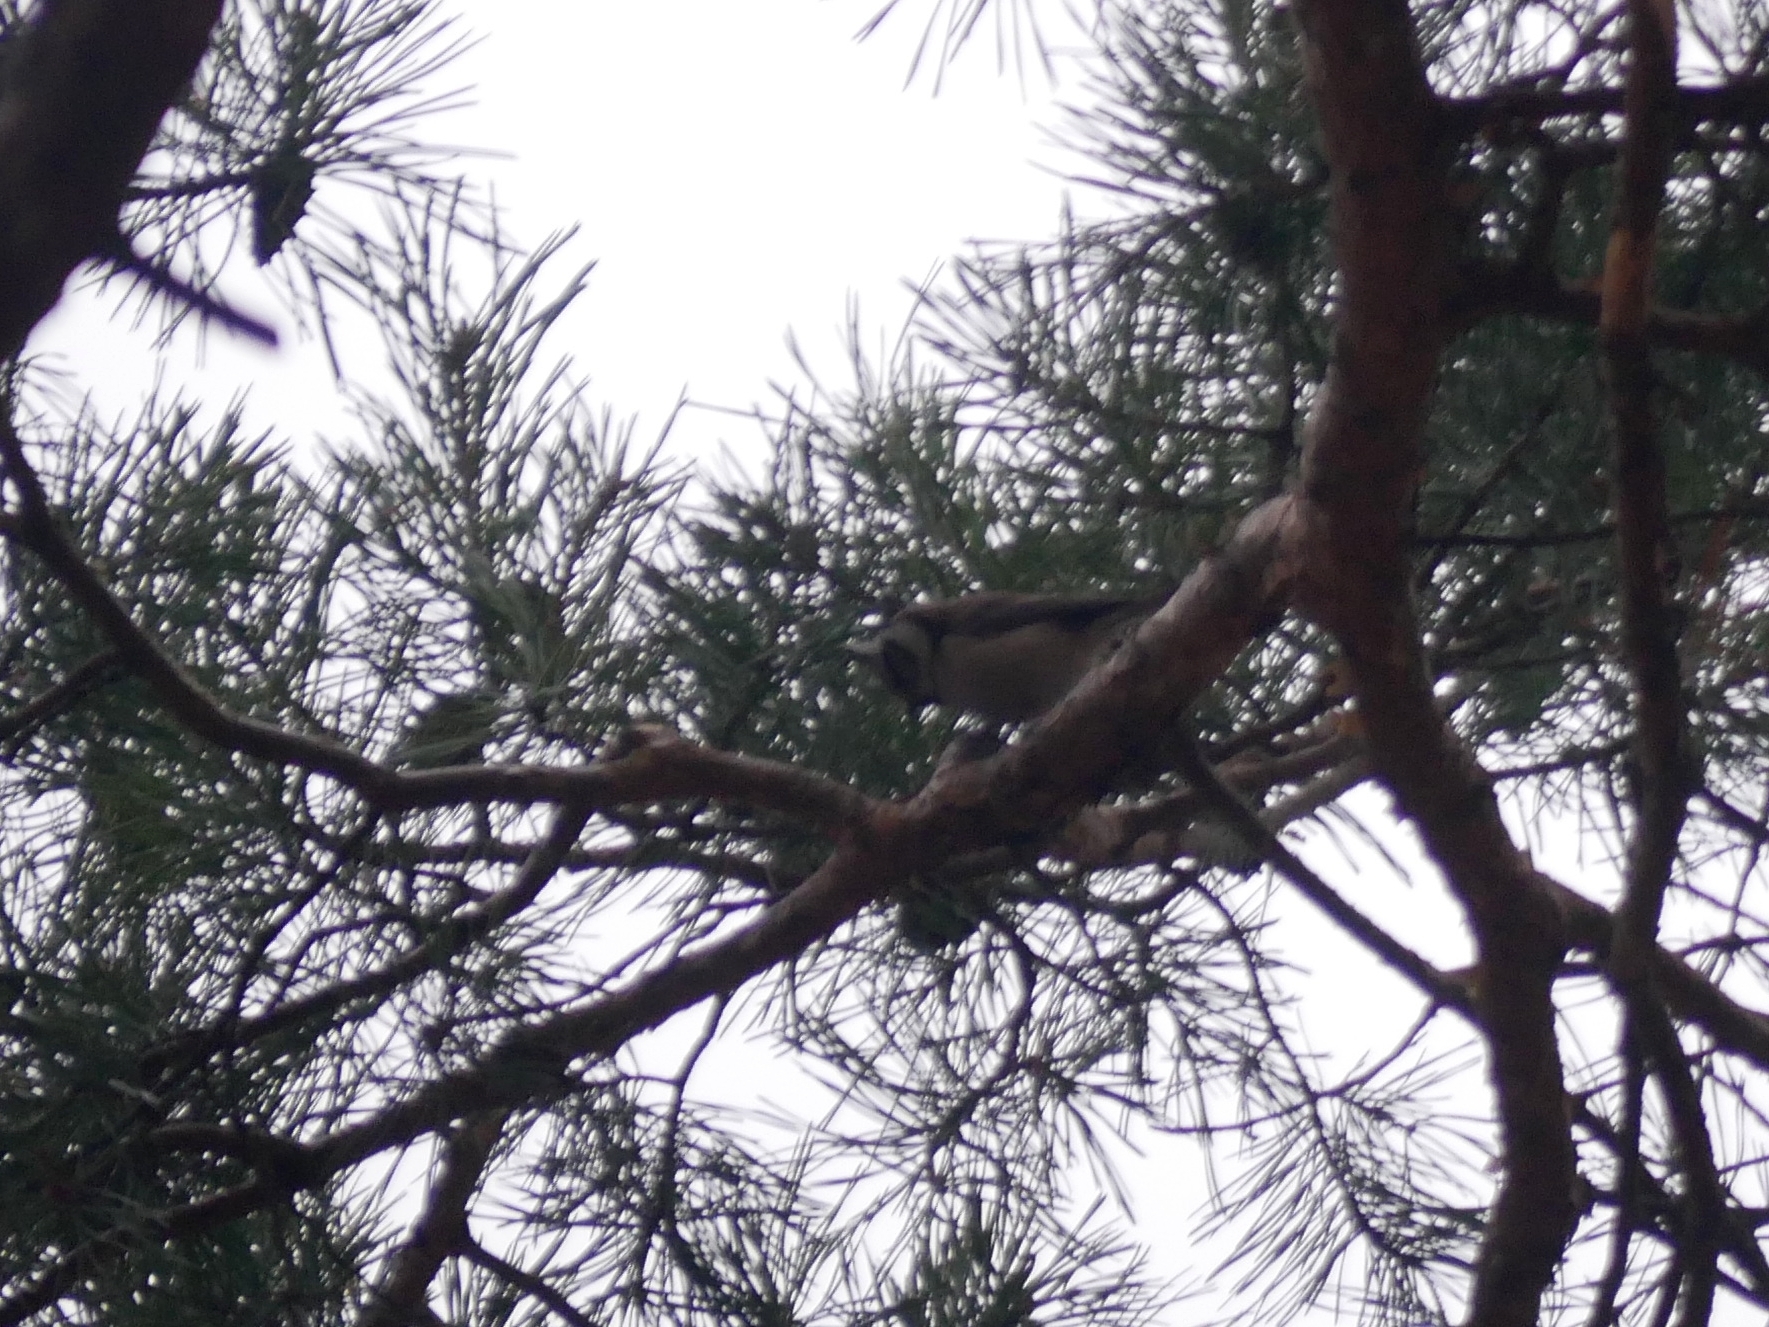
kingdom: Animalia
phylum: Chordata
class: Aves
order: Passeriformes
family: Paridae
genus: Lophophanes
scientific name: Lophophanes cristatus
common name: European crested tit
